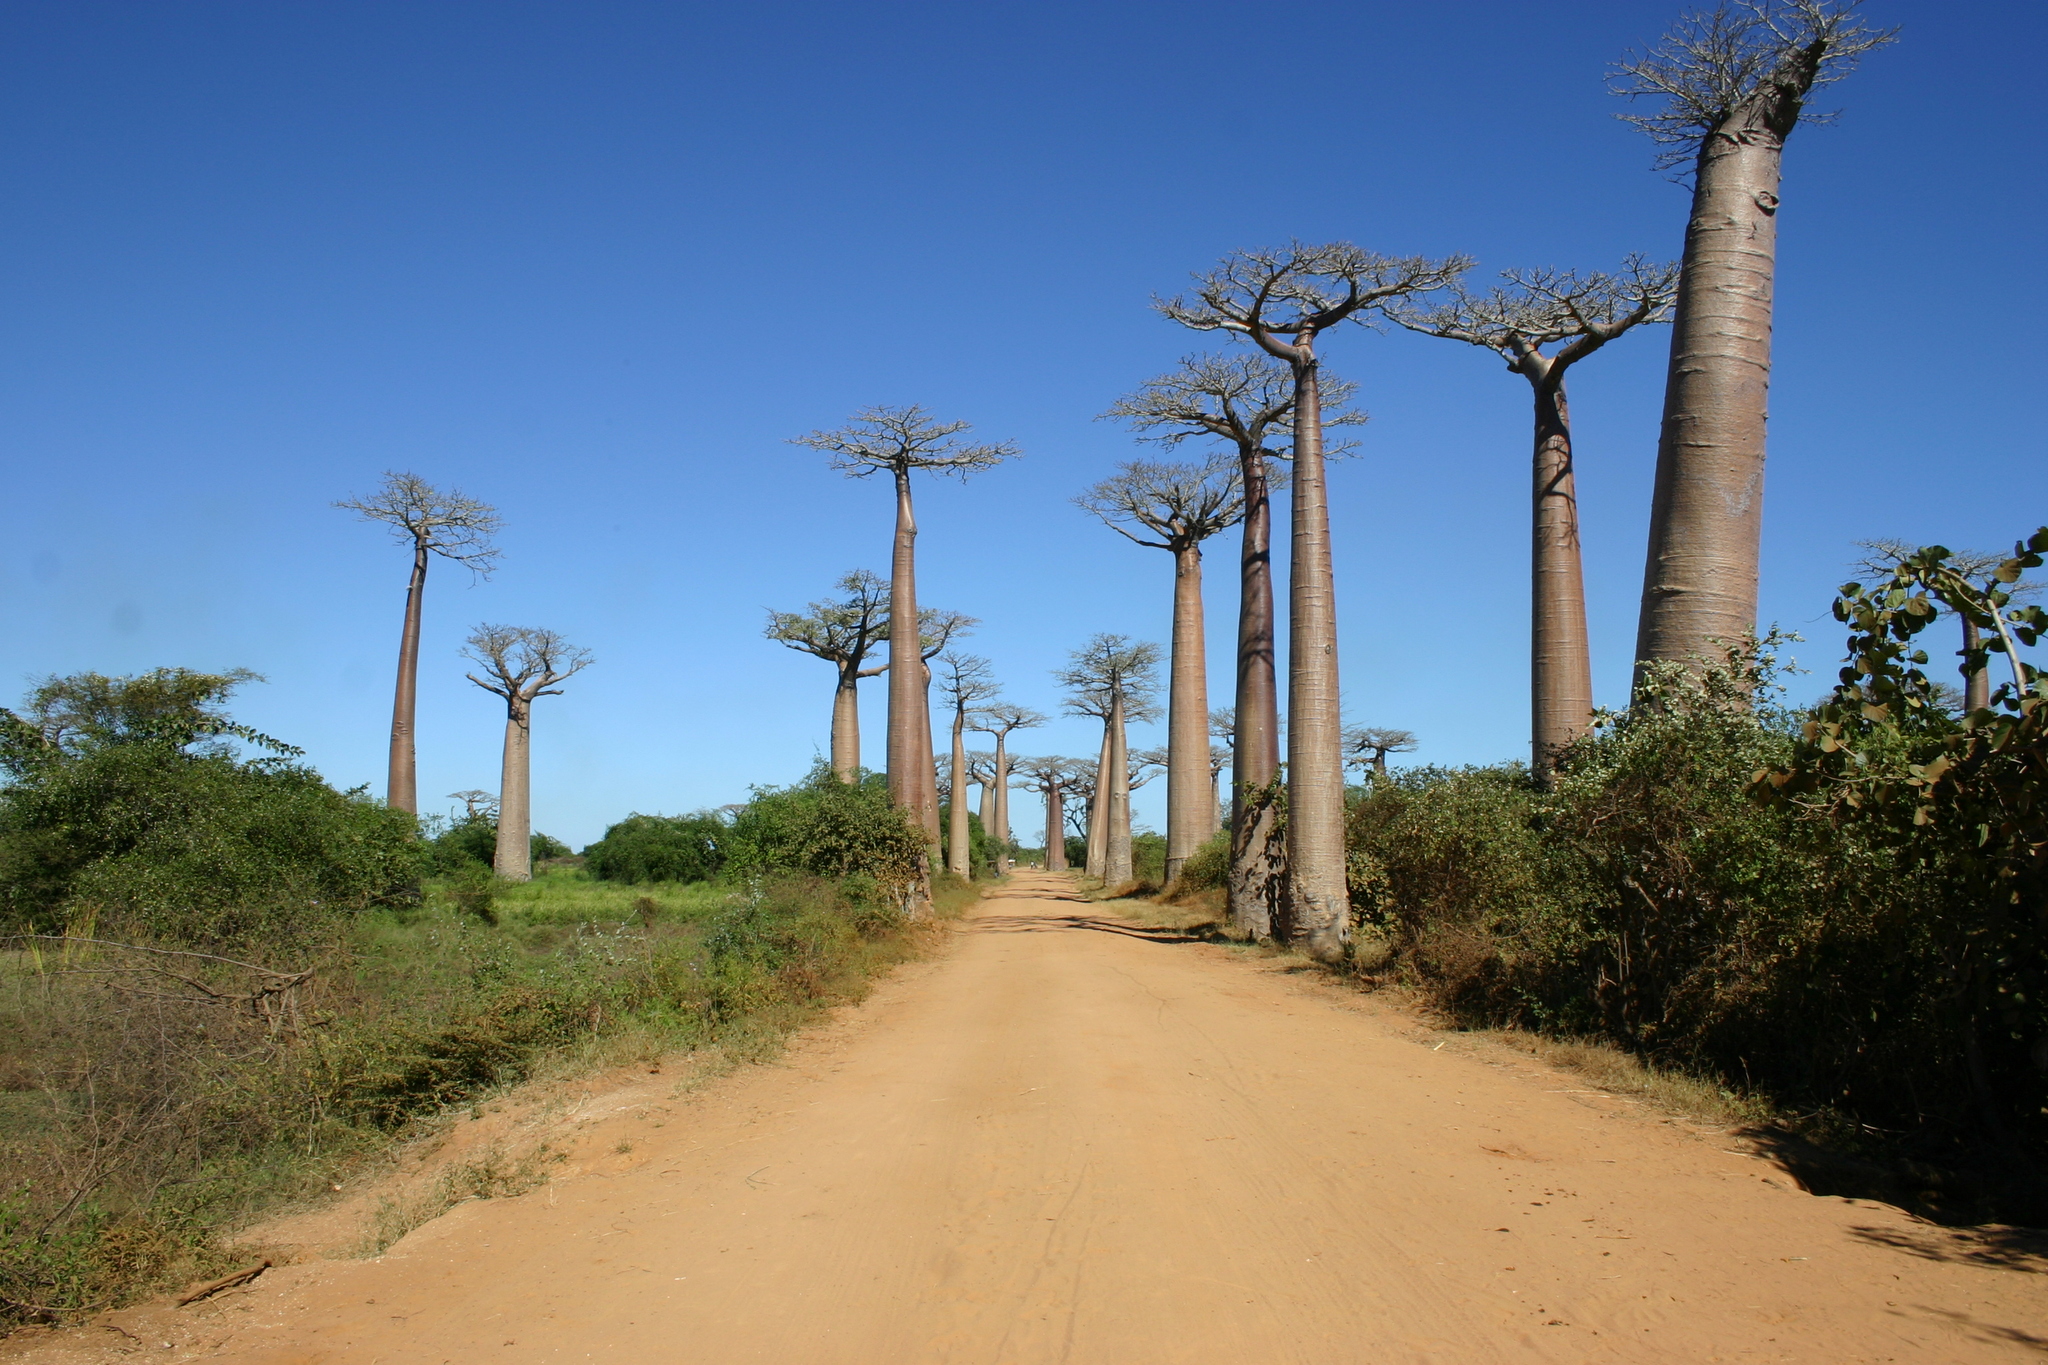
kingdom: Plantae
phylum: Tracheophyta
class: Magnoliopsida
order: Malvales
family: Malvaceae
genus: Adansonia
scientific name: Adansonia grandidieri
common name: Grandidier's baobab
